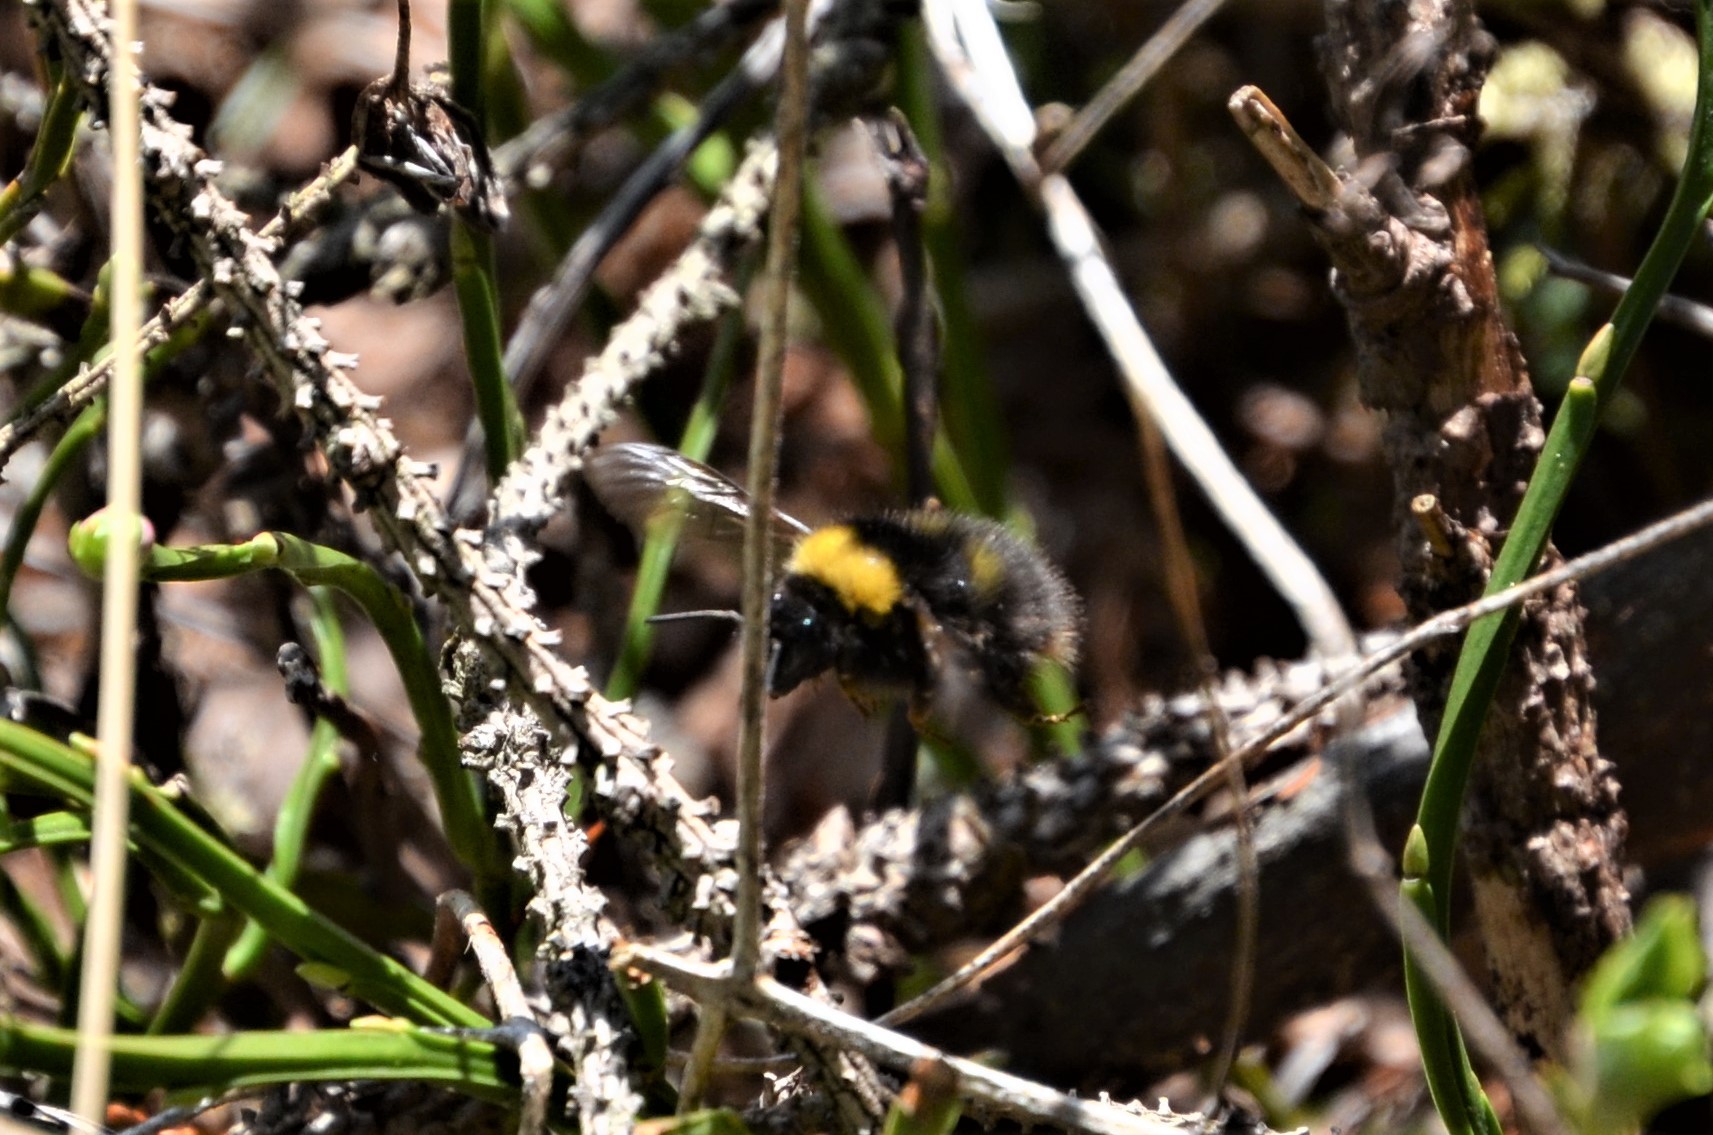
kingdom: Animalia
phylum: Arthropoda
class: Insecta
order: Hymenoptera
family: Apidae
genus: Bombus
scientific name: Bombus pratorum
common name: Early humble-bee
